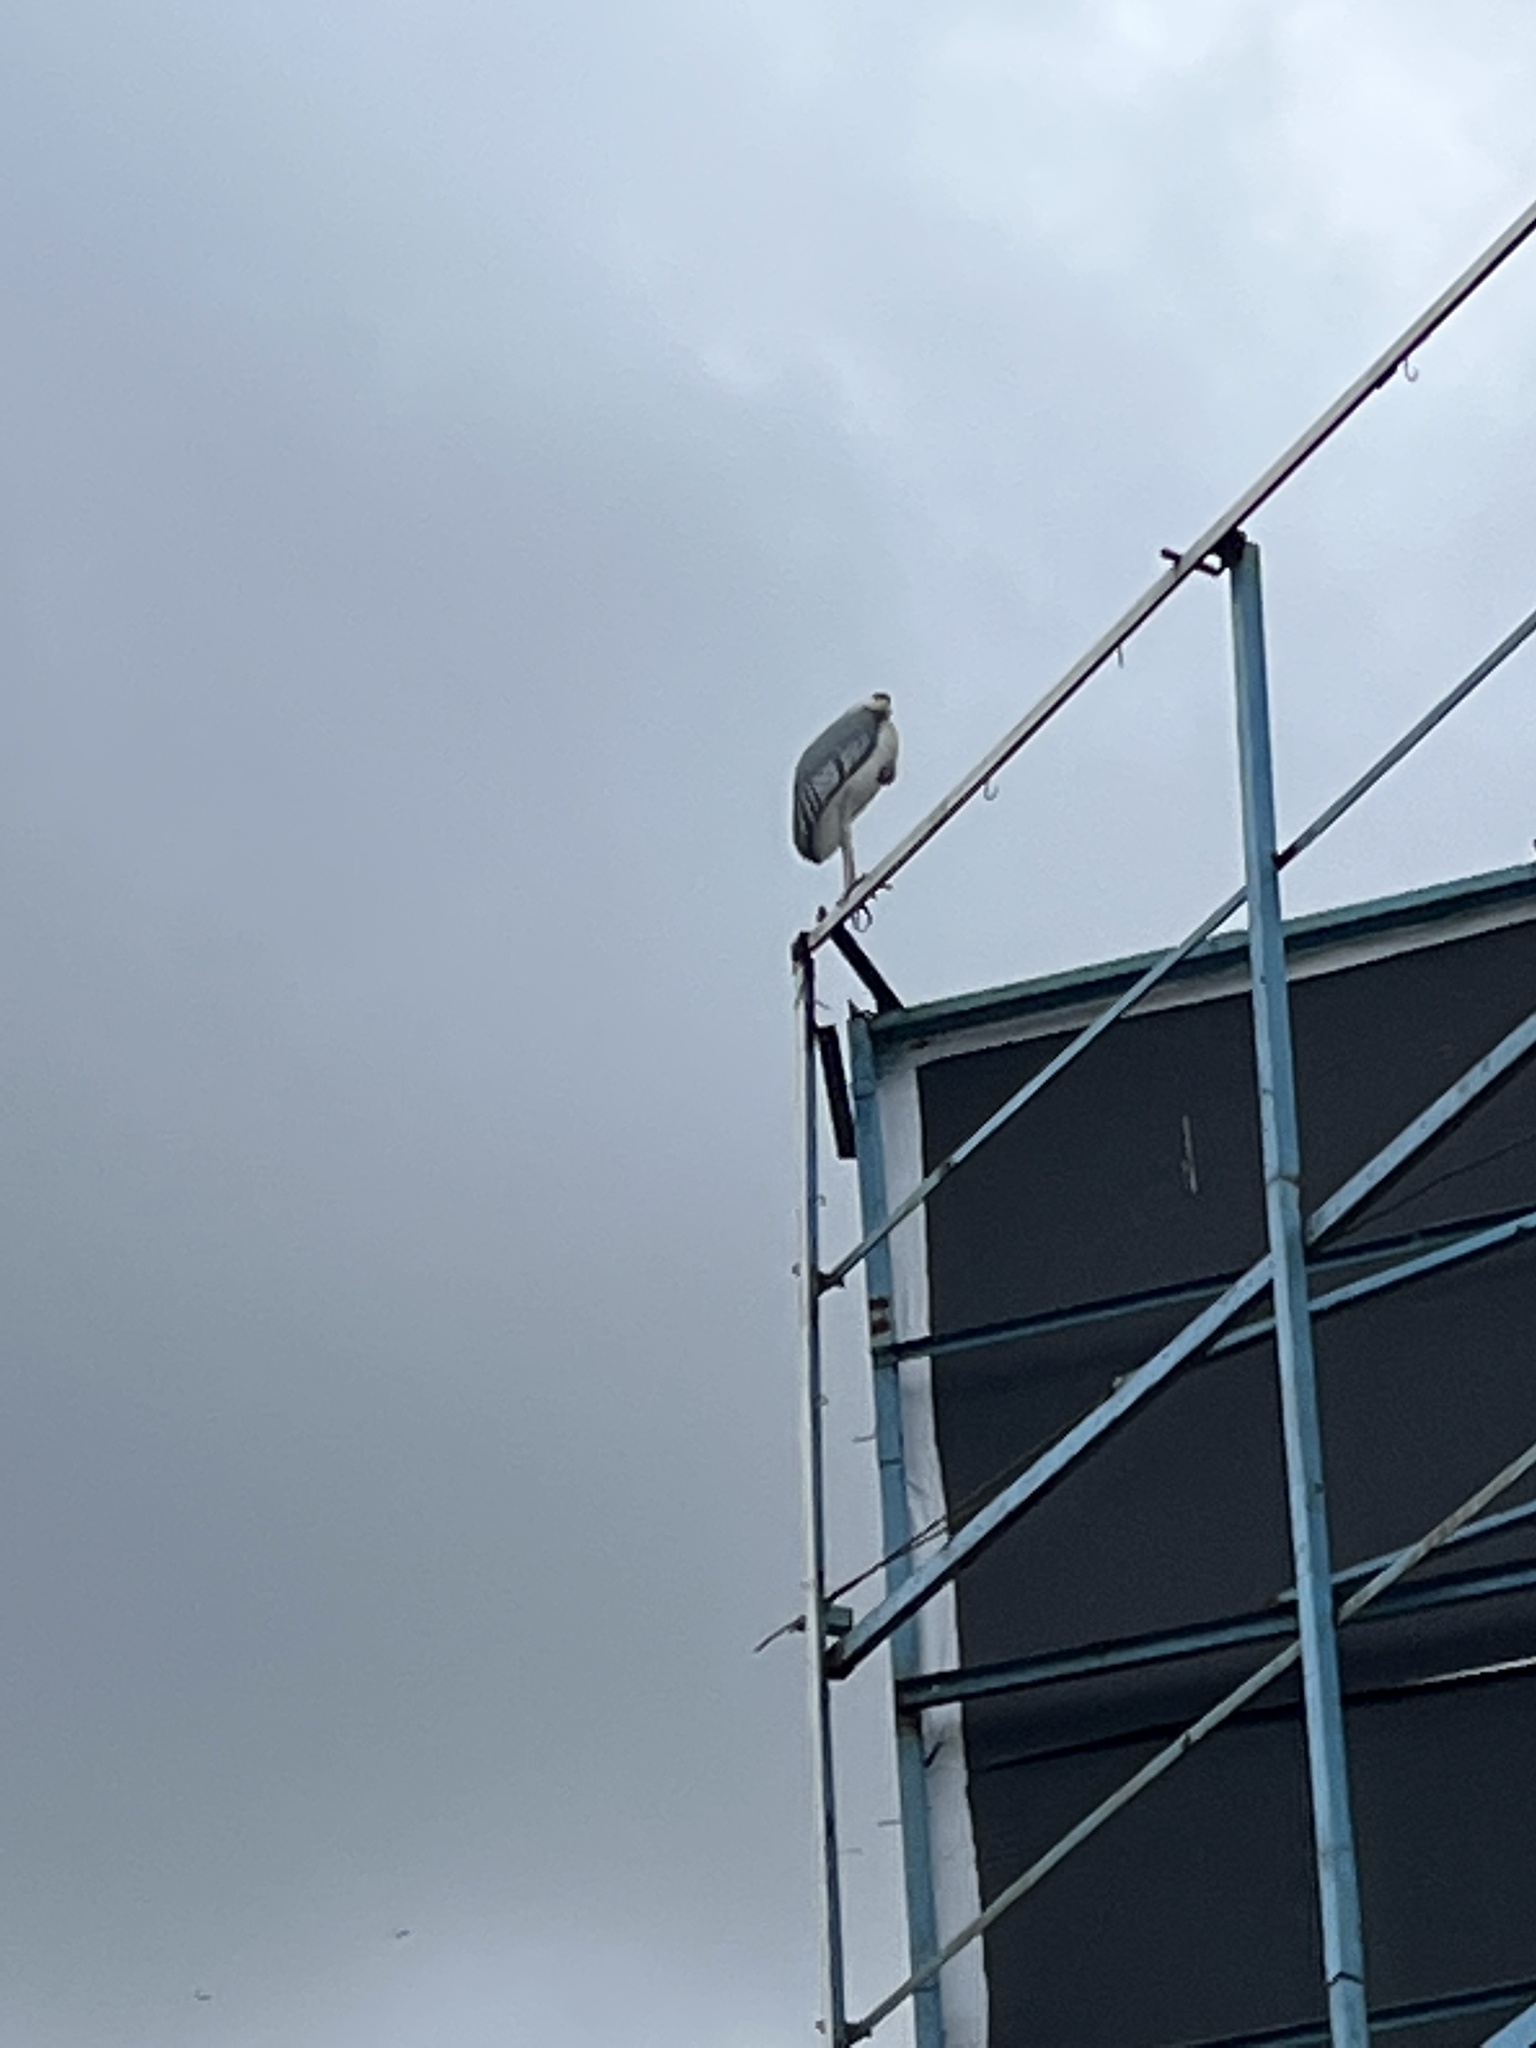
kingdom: Animalia
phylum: Chordata
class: Aves
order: Ciconiiformes
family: Ciconiidae
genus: Leptoptilos
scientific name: Leptoptilos crumenifer
